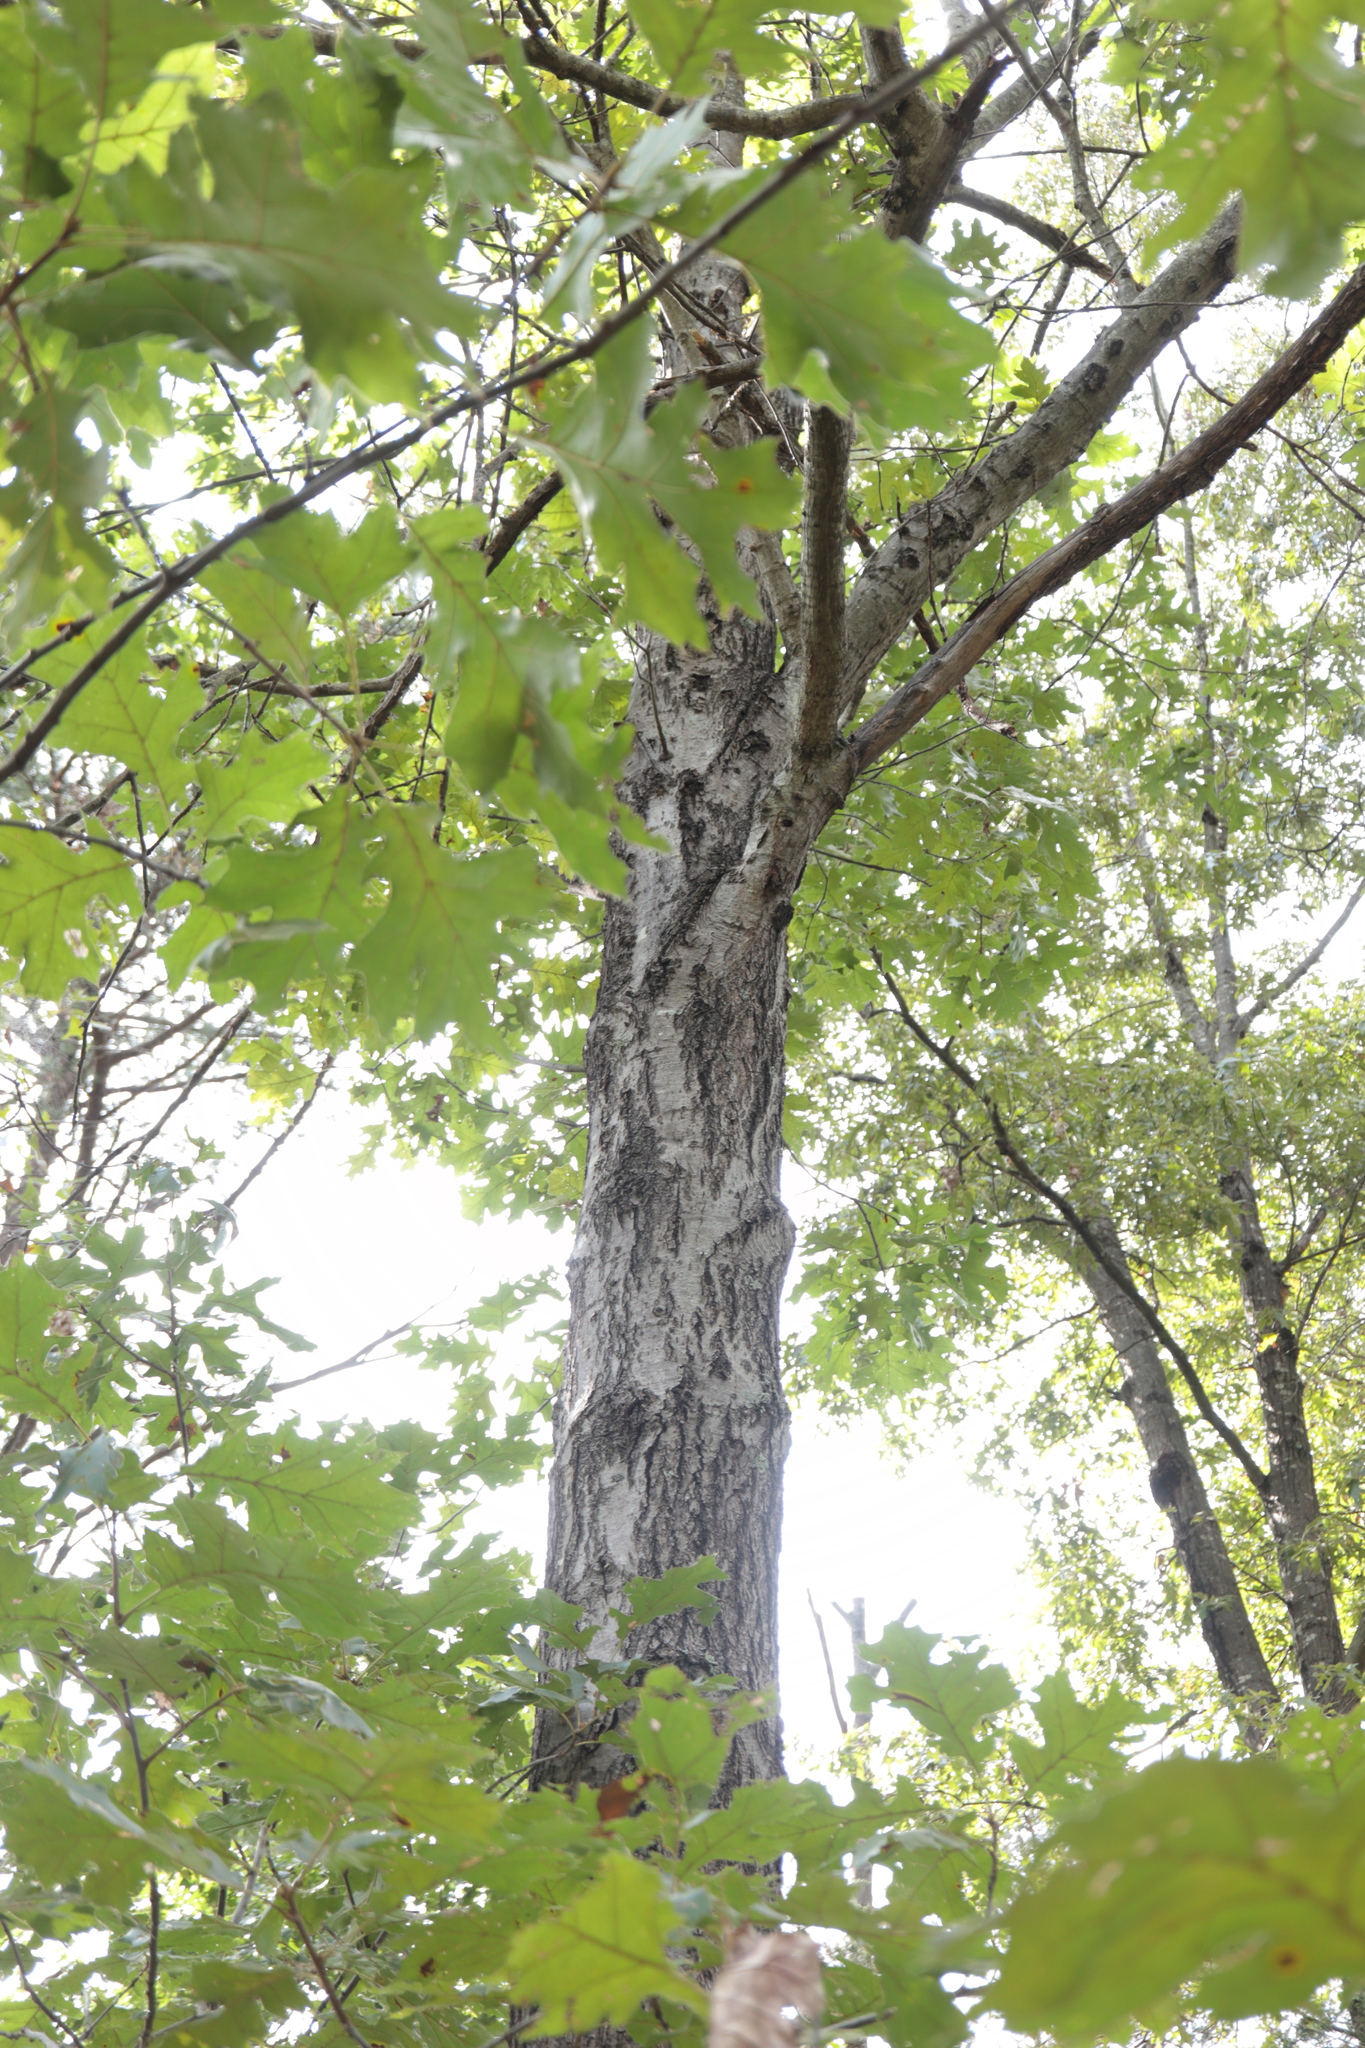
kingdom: Plantae
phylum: Tracheophyta
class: Magnoliopsida
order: Fagales
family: Fagaceae
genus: Quercus
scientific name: Quercus velutina
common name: Black oak
